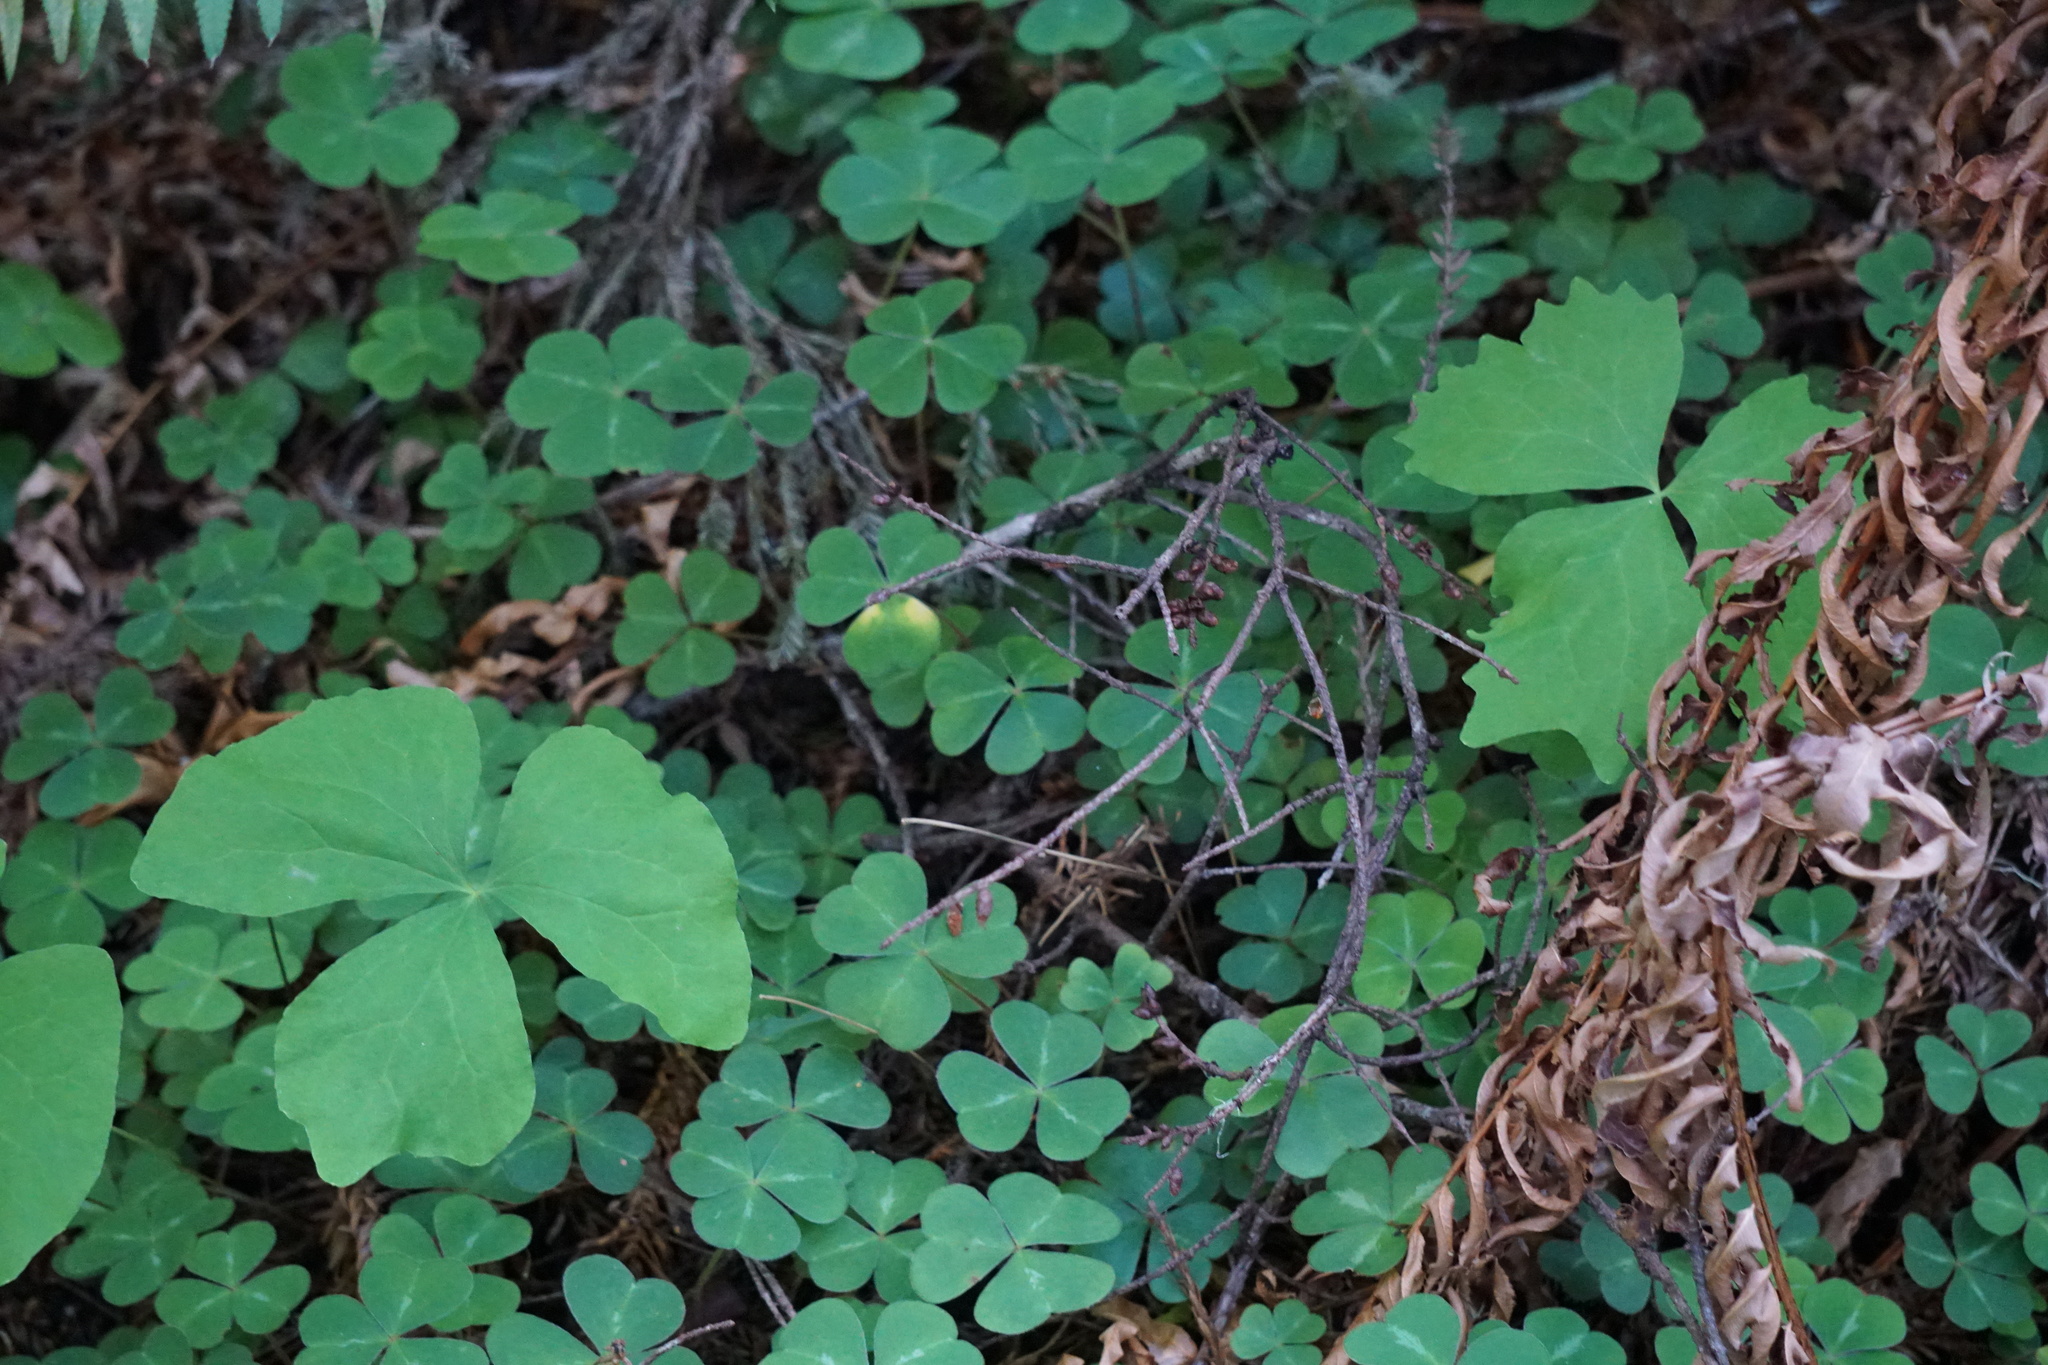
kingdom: Plantae
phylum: Tracheophyta
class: Magnoliopsida
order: Ranunculales
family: Berberidaceae
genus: Achlys
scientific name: Achlys triphylla
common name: Vanilla-leaf
